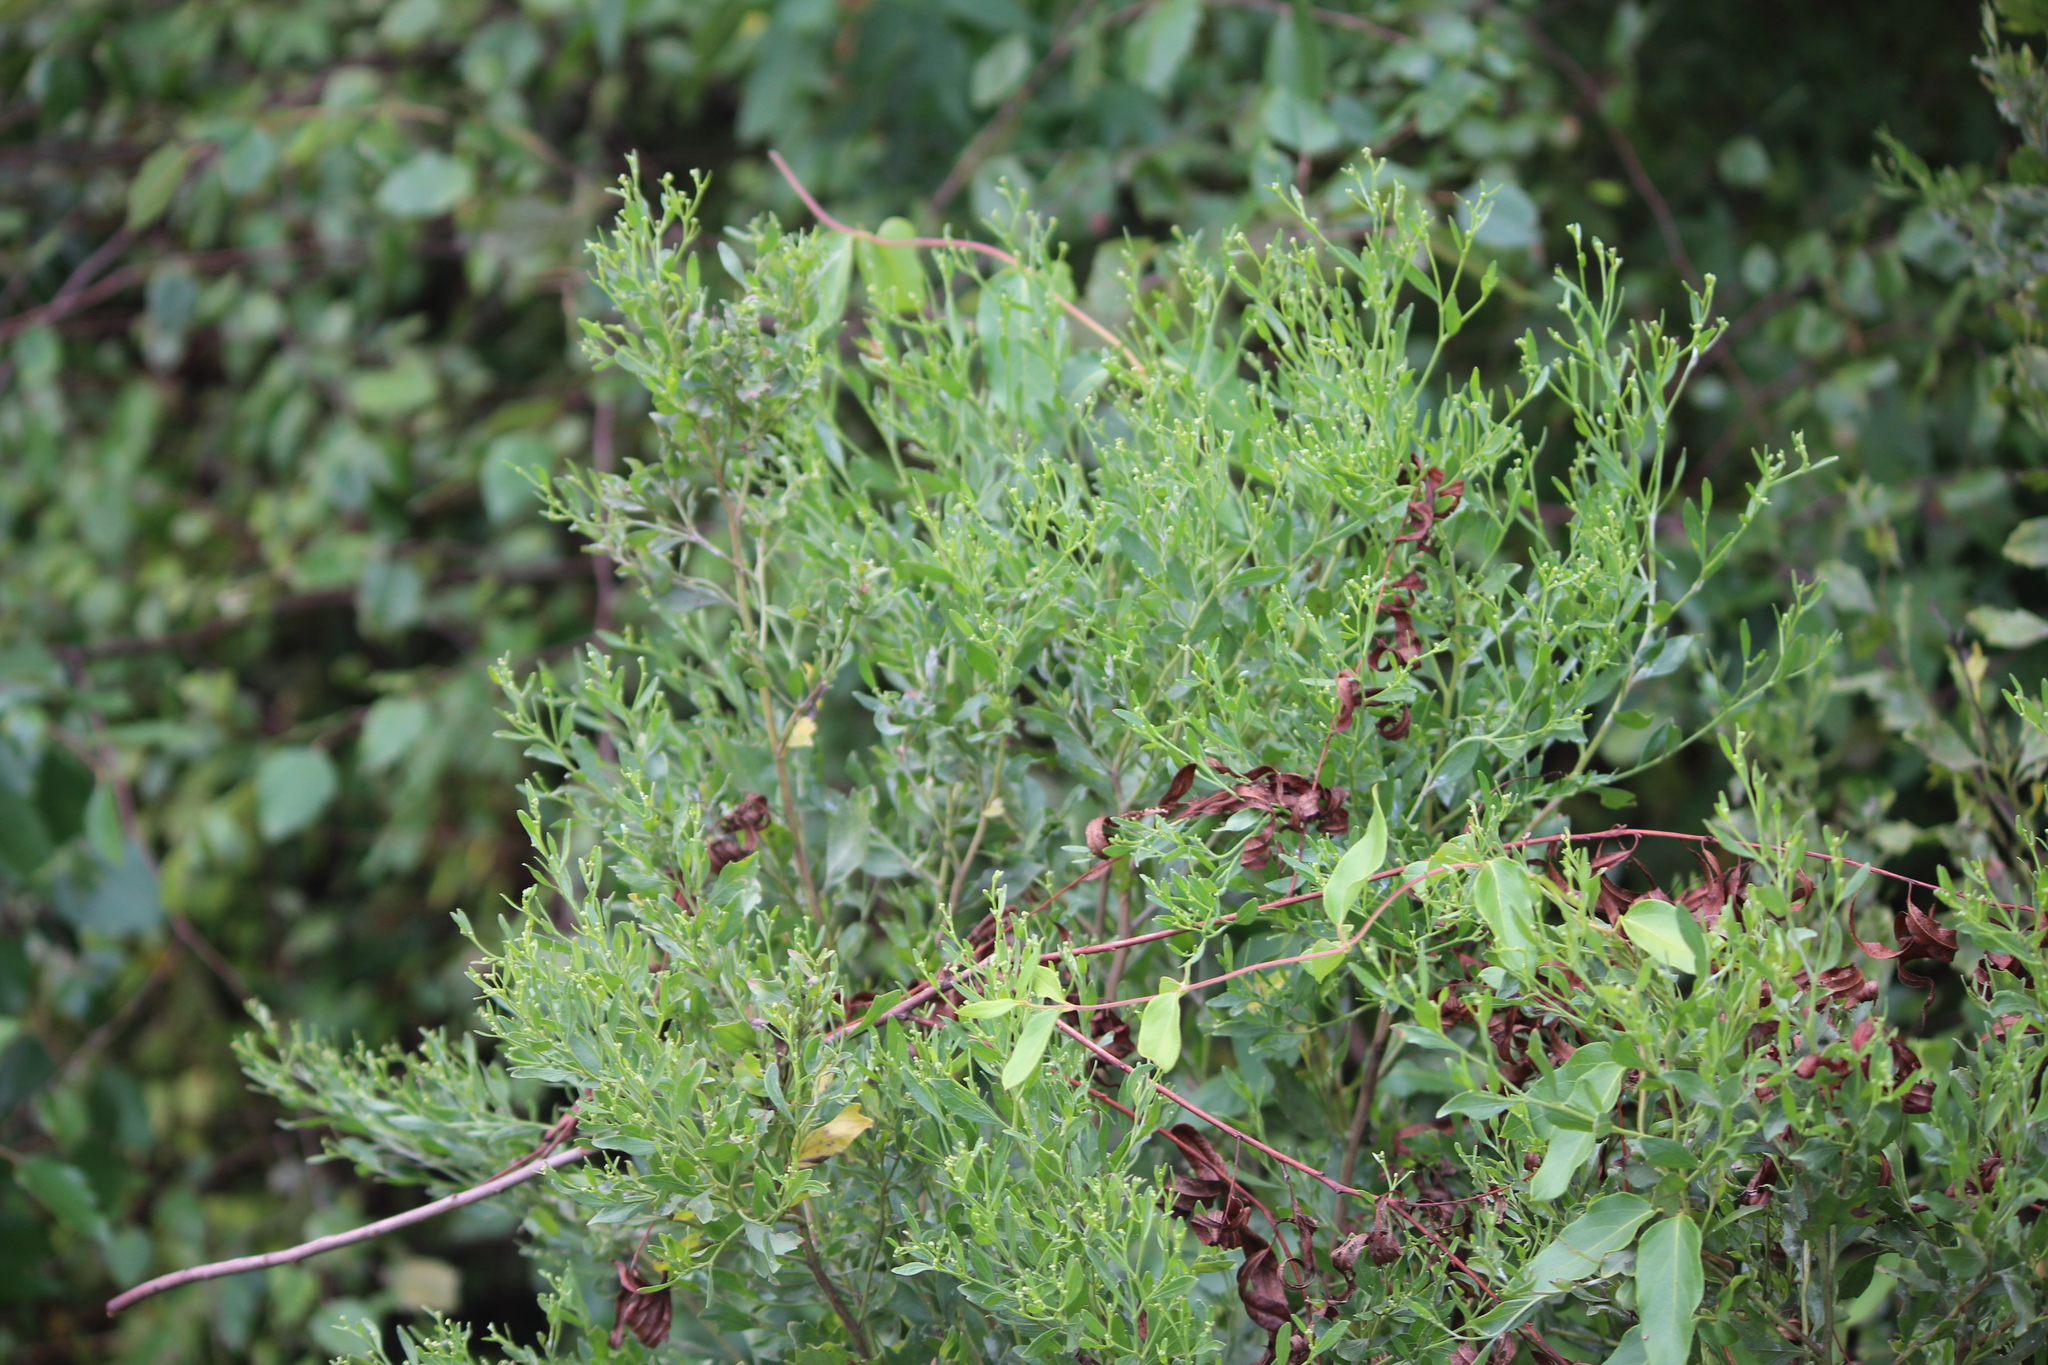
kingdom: Plantae
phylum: Tracheophyta
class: Magnoliopsida
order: Asterales
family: Asteraceae
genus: Baccharis
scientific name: Baccharis halimifolia
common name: Eastern baccharis
